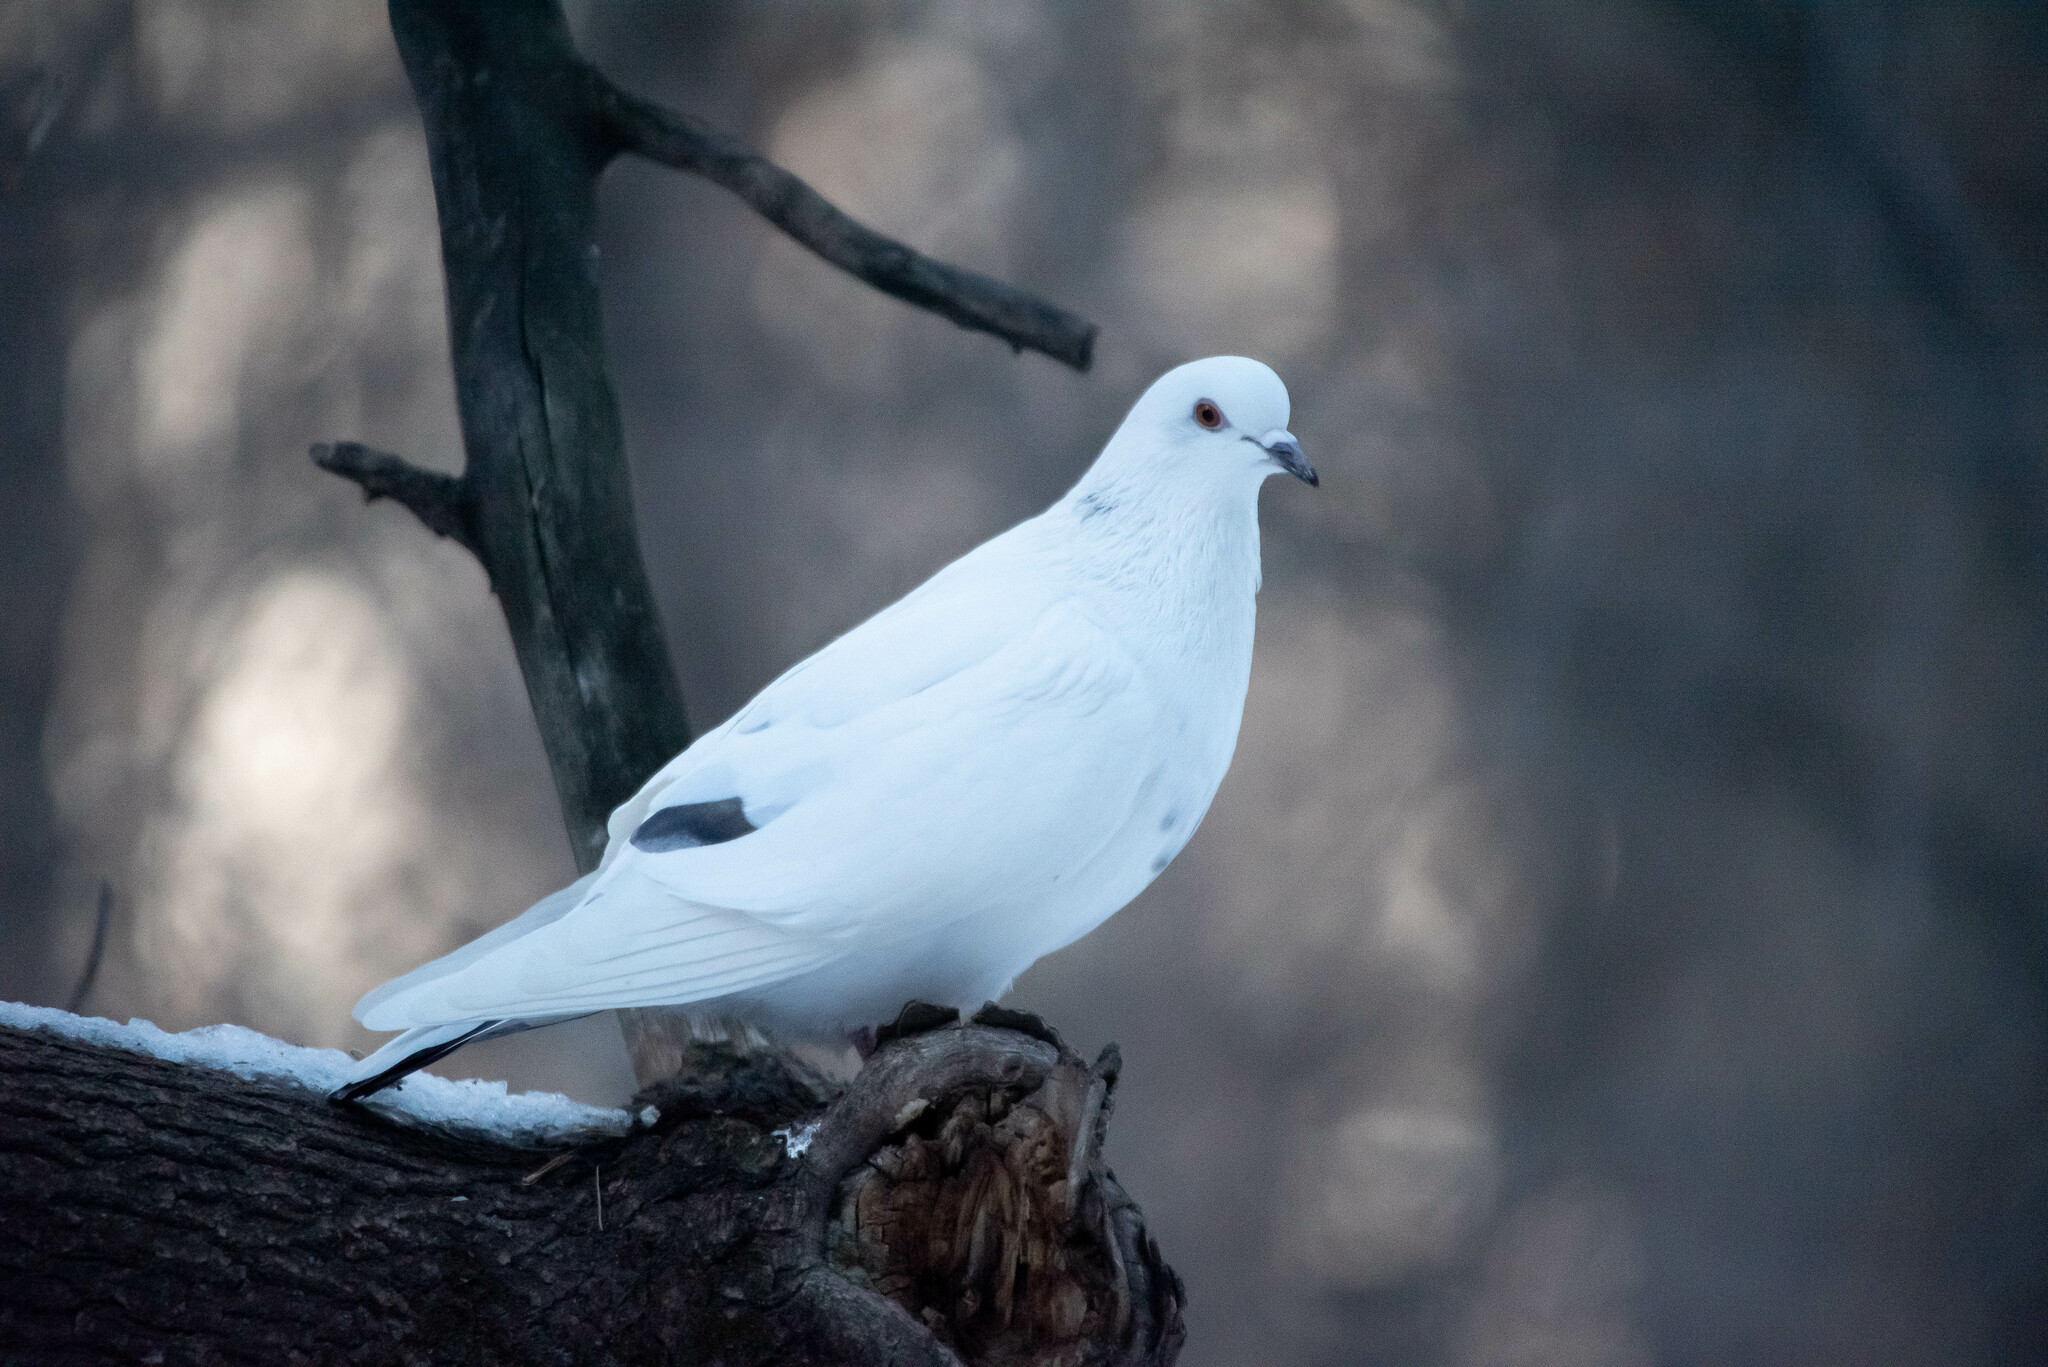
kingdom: Animalia
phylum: Chordata
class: Aves
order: Columbiformes
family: Columbidae
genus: Columba
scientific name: Columba livia
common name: Rock pigeon
